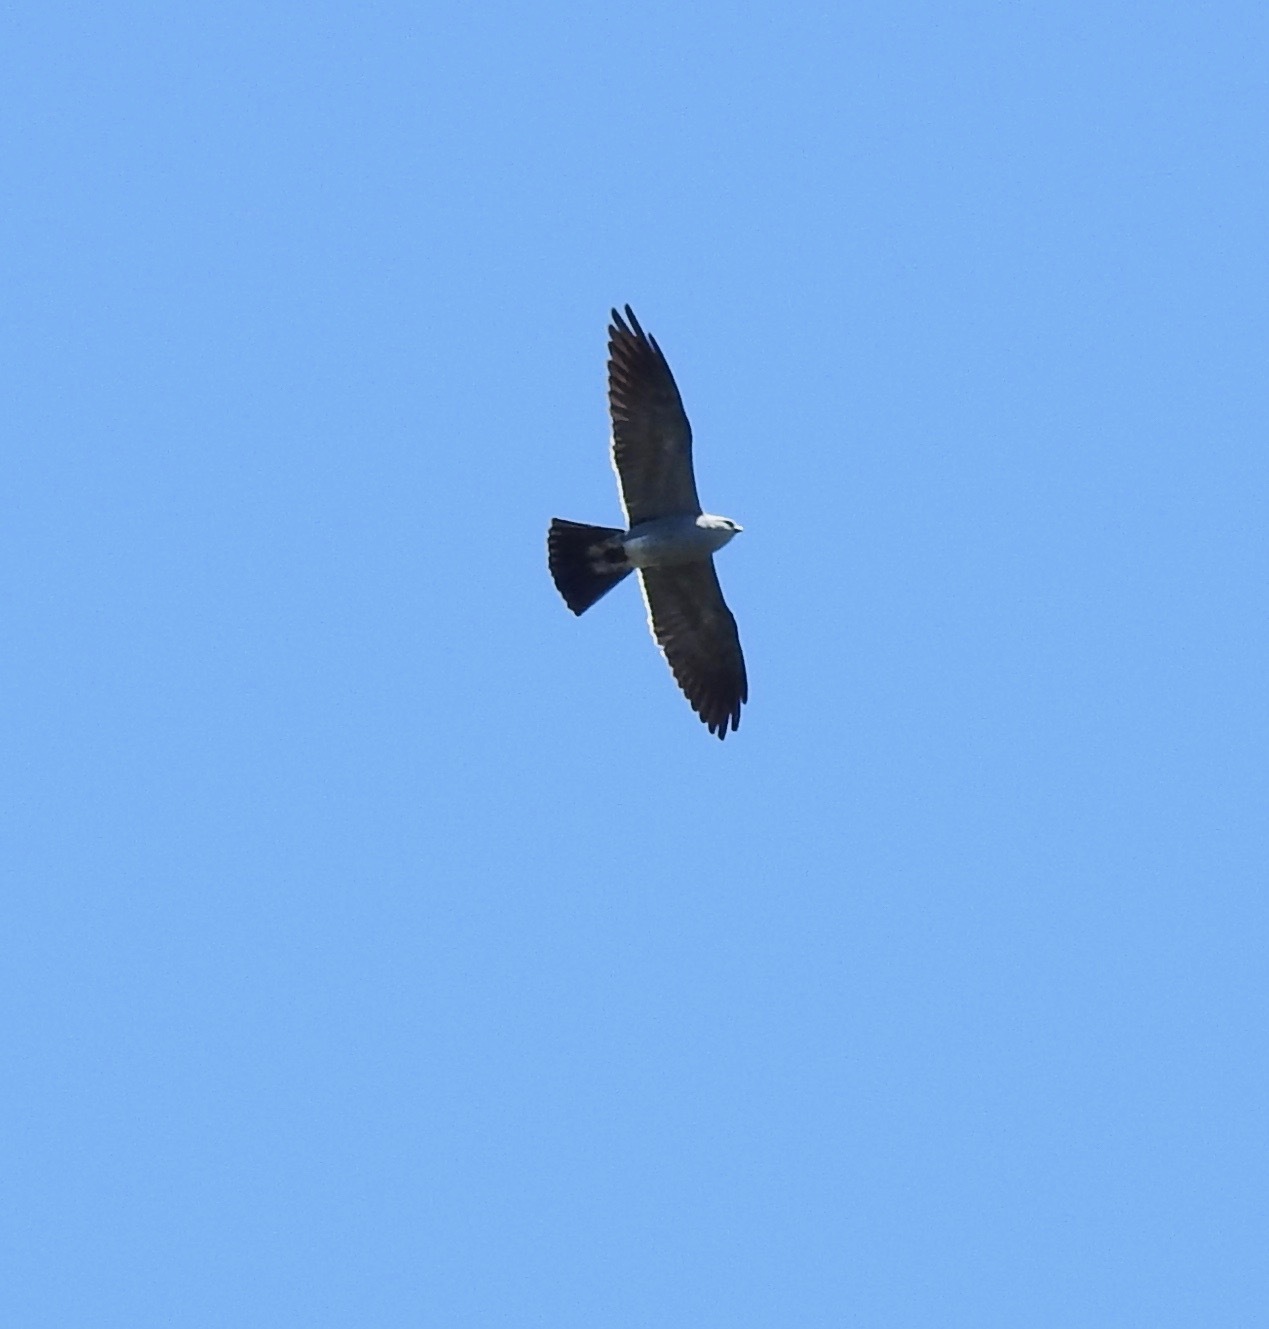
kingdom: Animalia
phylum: Chordata
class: Aves
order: Accipitriformes
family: Accipitridae
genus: Ictinia
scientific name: Ictinia mississippiensis
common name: Mississippi kite
